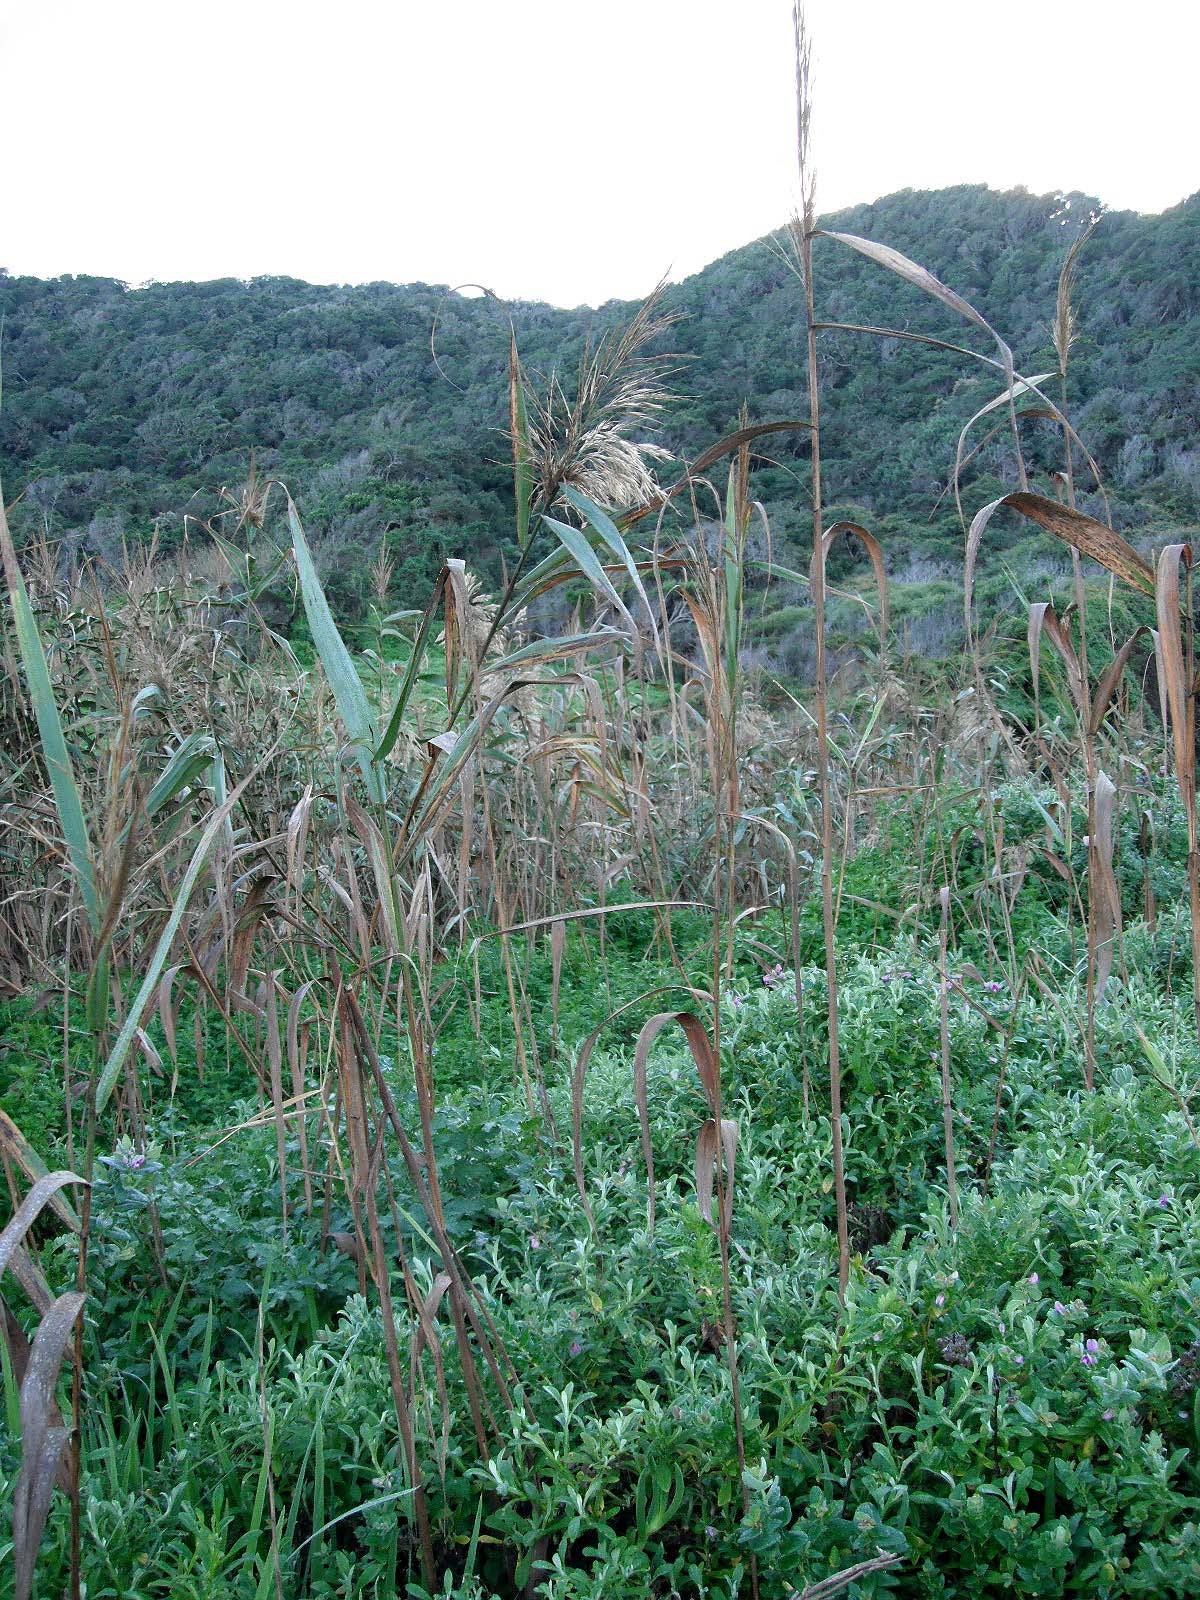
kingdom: Plantae
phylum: Tracheophyta
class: Liliopsida
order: Poales
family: Poaceae
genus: Phragmites
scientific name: Phragmites australis
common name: Common reed
